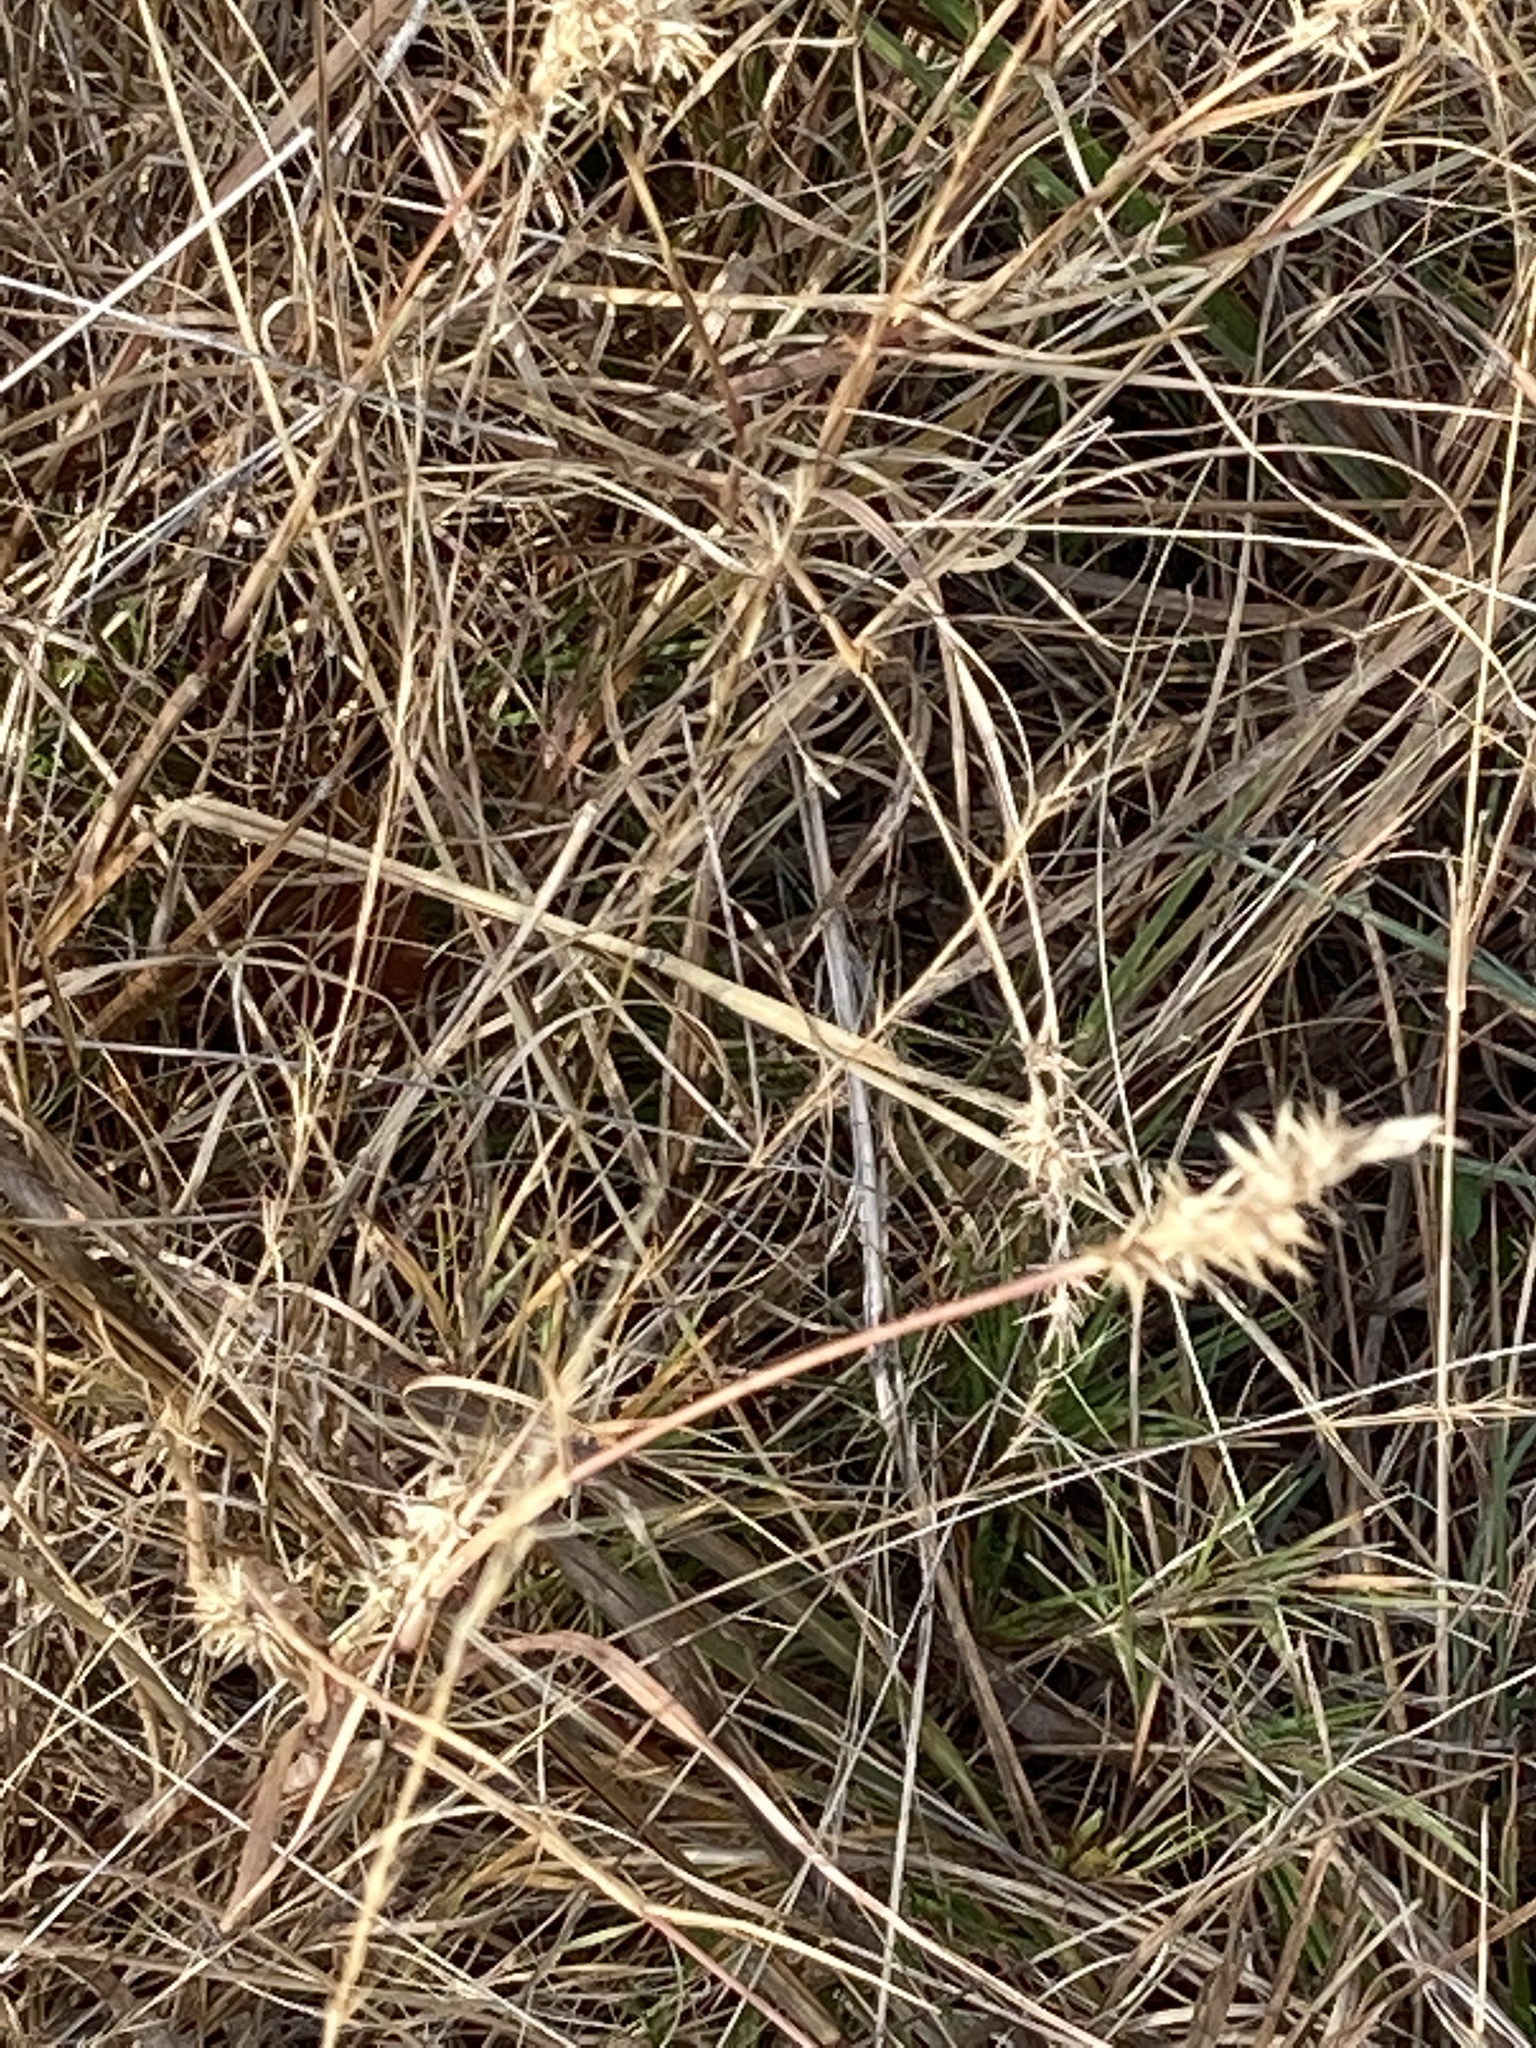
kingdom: Plantae
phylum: Tracheophyta
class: Liliopsida
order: Poales
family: Poaceae
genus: Cenchrus
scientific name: Cenchrus spinifex
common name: Coast sandbur
